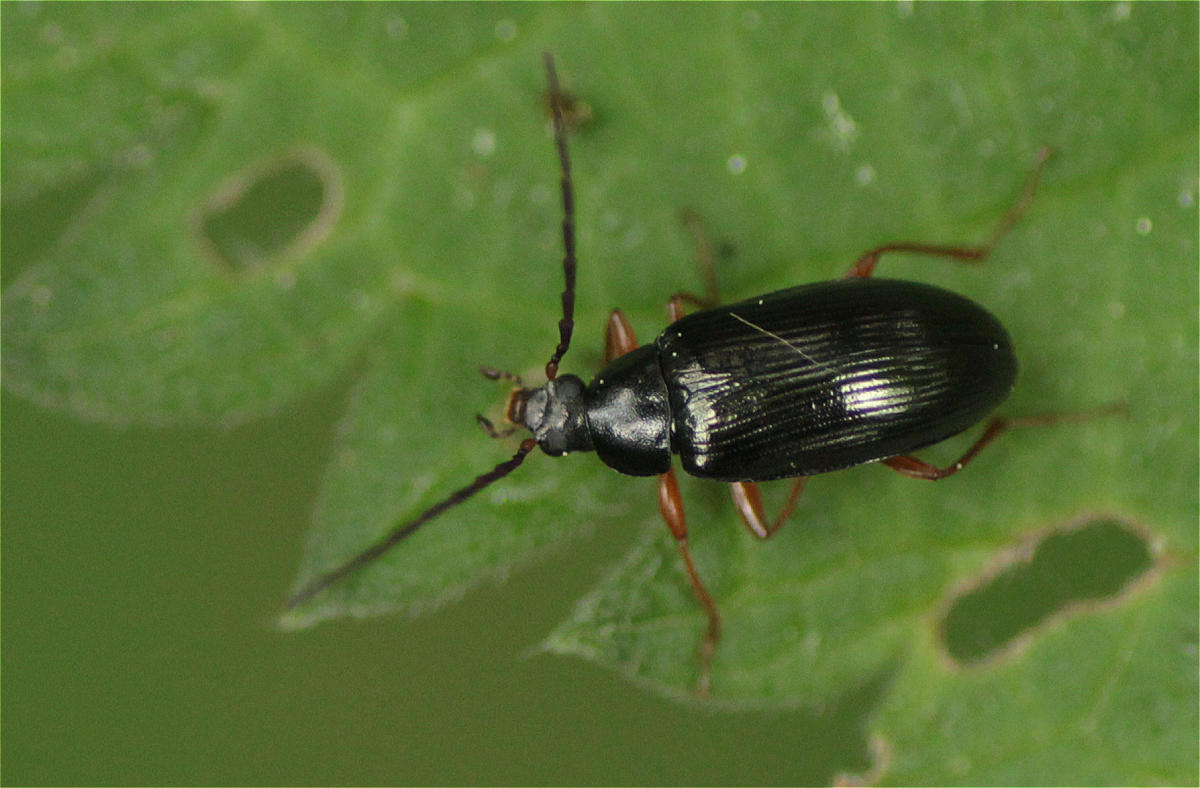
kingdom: Animalia
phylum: Arthropoda
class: Insecta
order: Coleoptera
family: Tenebrionidae
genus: Gonodera
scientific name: Gonodera luperus
